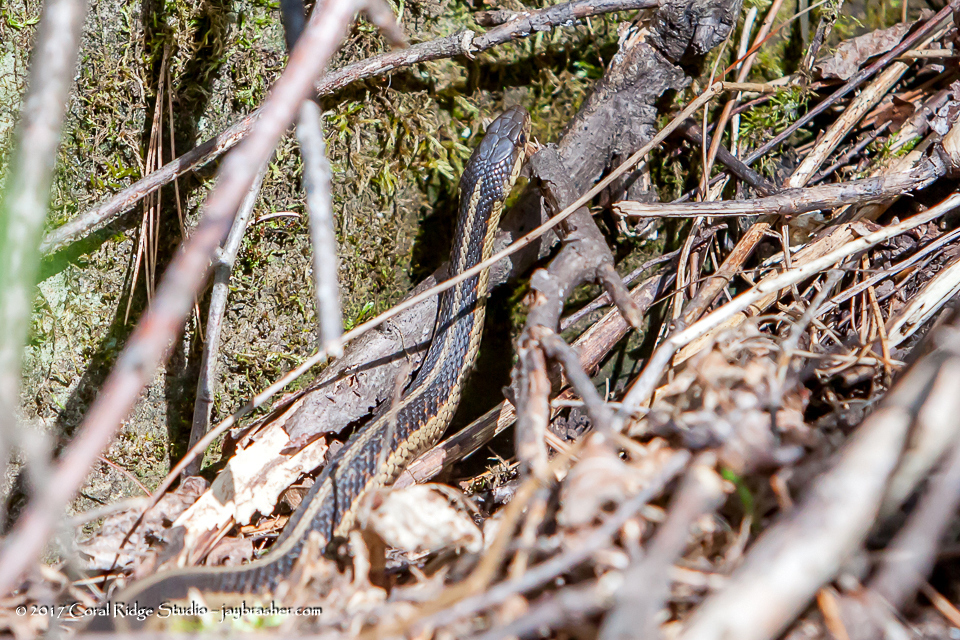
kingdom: Animalia
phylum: Chordata
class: Squamata
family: Colubridae
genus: Thamnophis
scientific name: Thamnophis sirtalis
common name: Common garter snake
